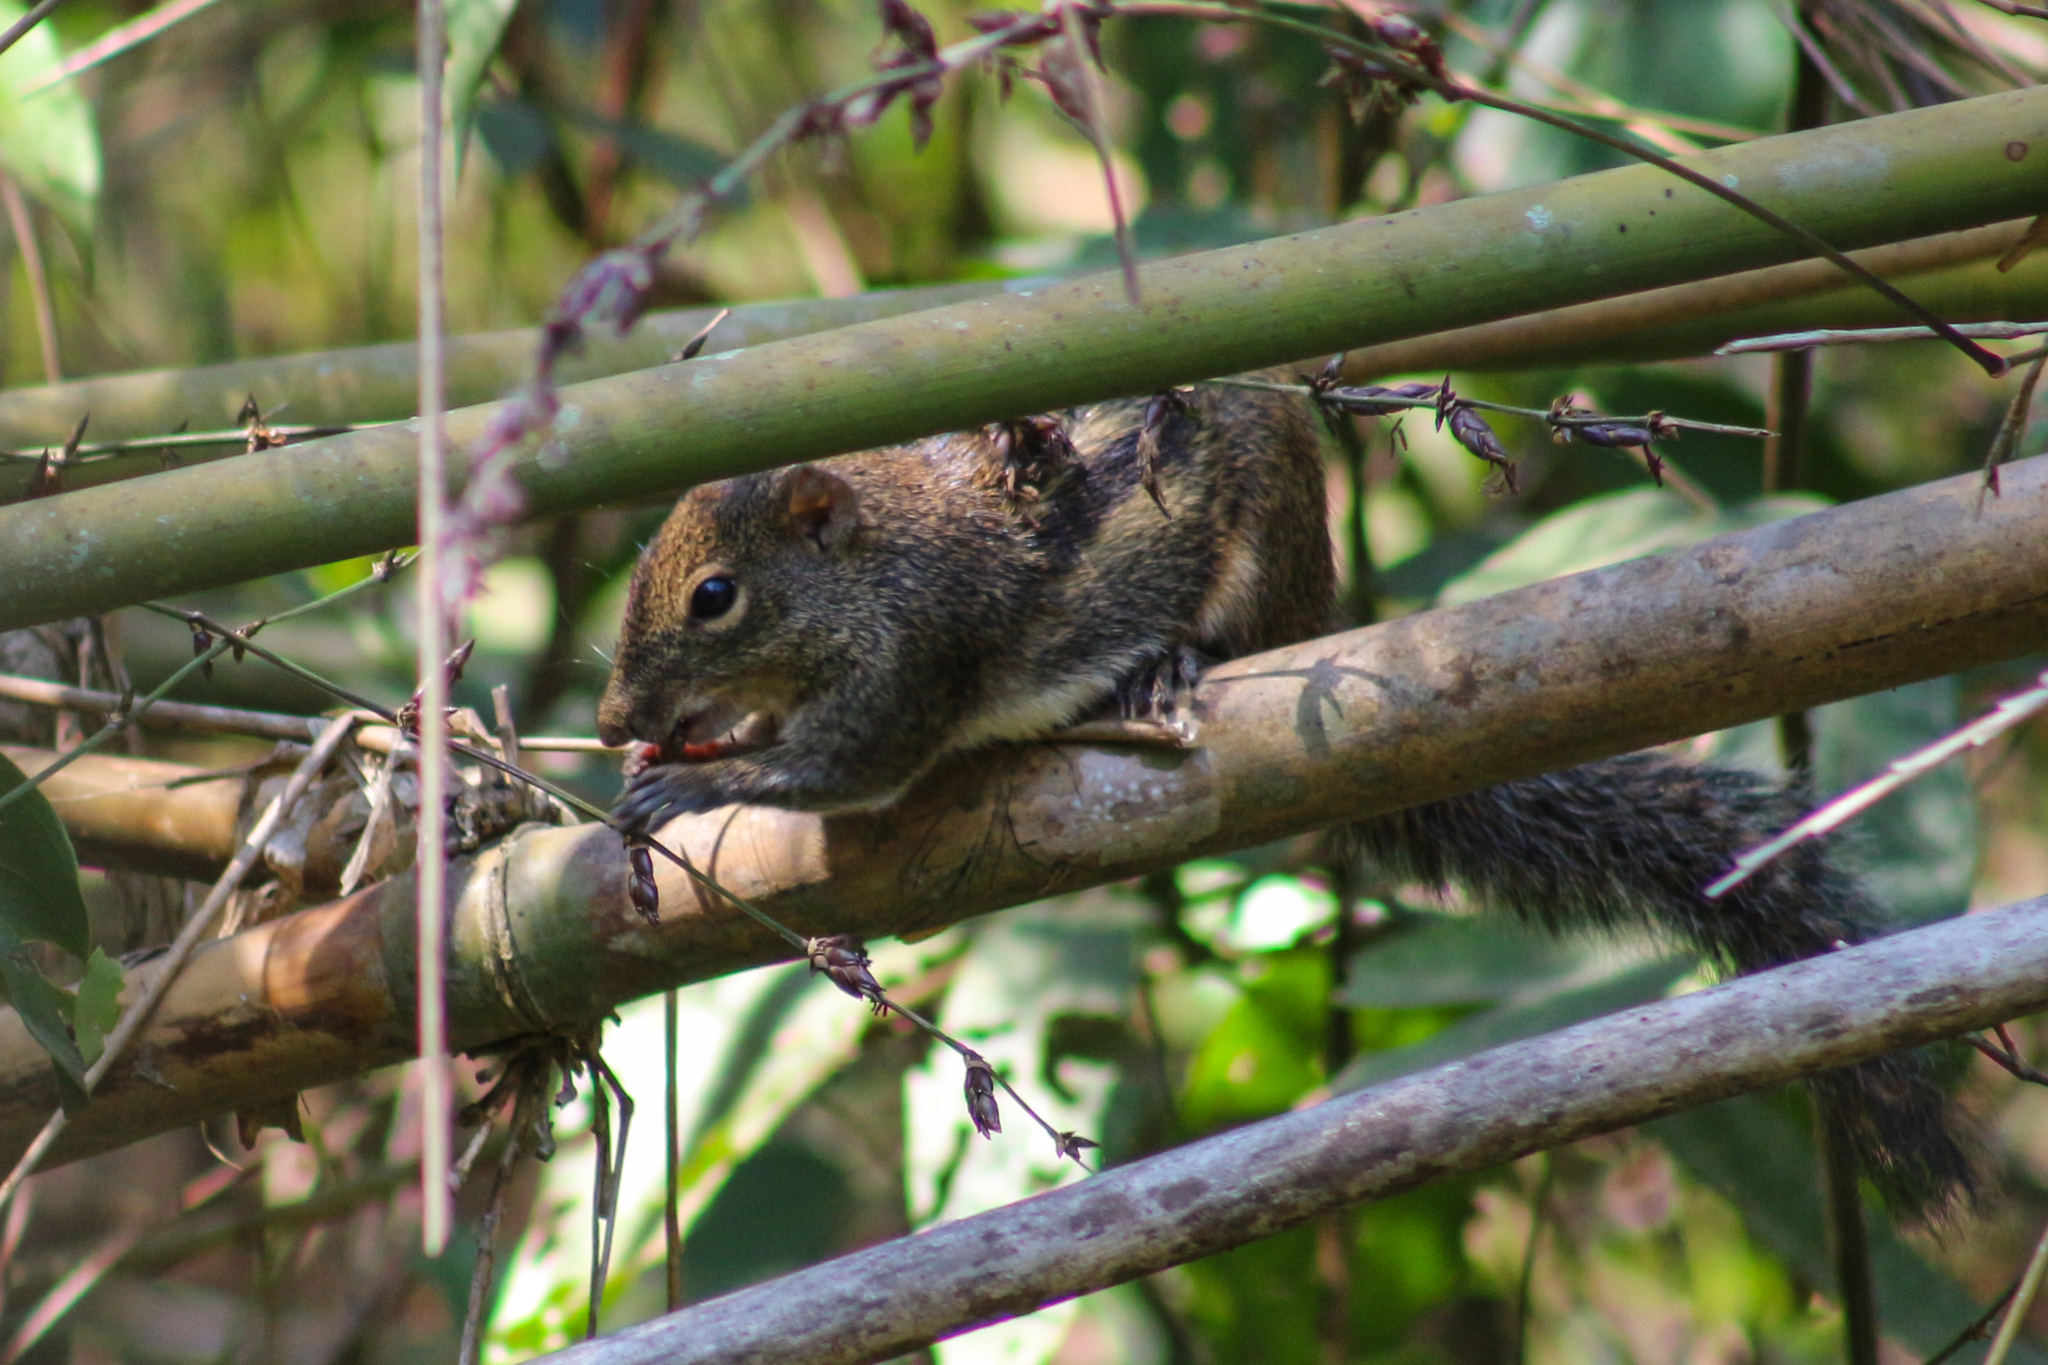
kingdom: Animalia
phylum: Chordata
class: Mammalia
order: Rodentia
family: Sciuridae
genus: Menetes
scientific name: Menetes berdmorei
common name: Indochinese ground squirrel
